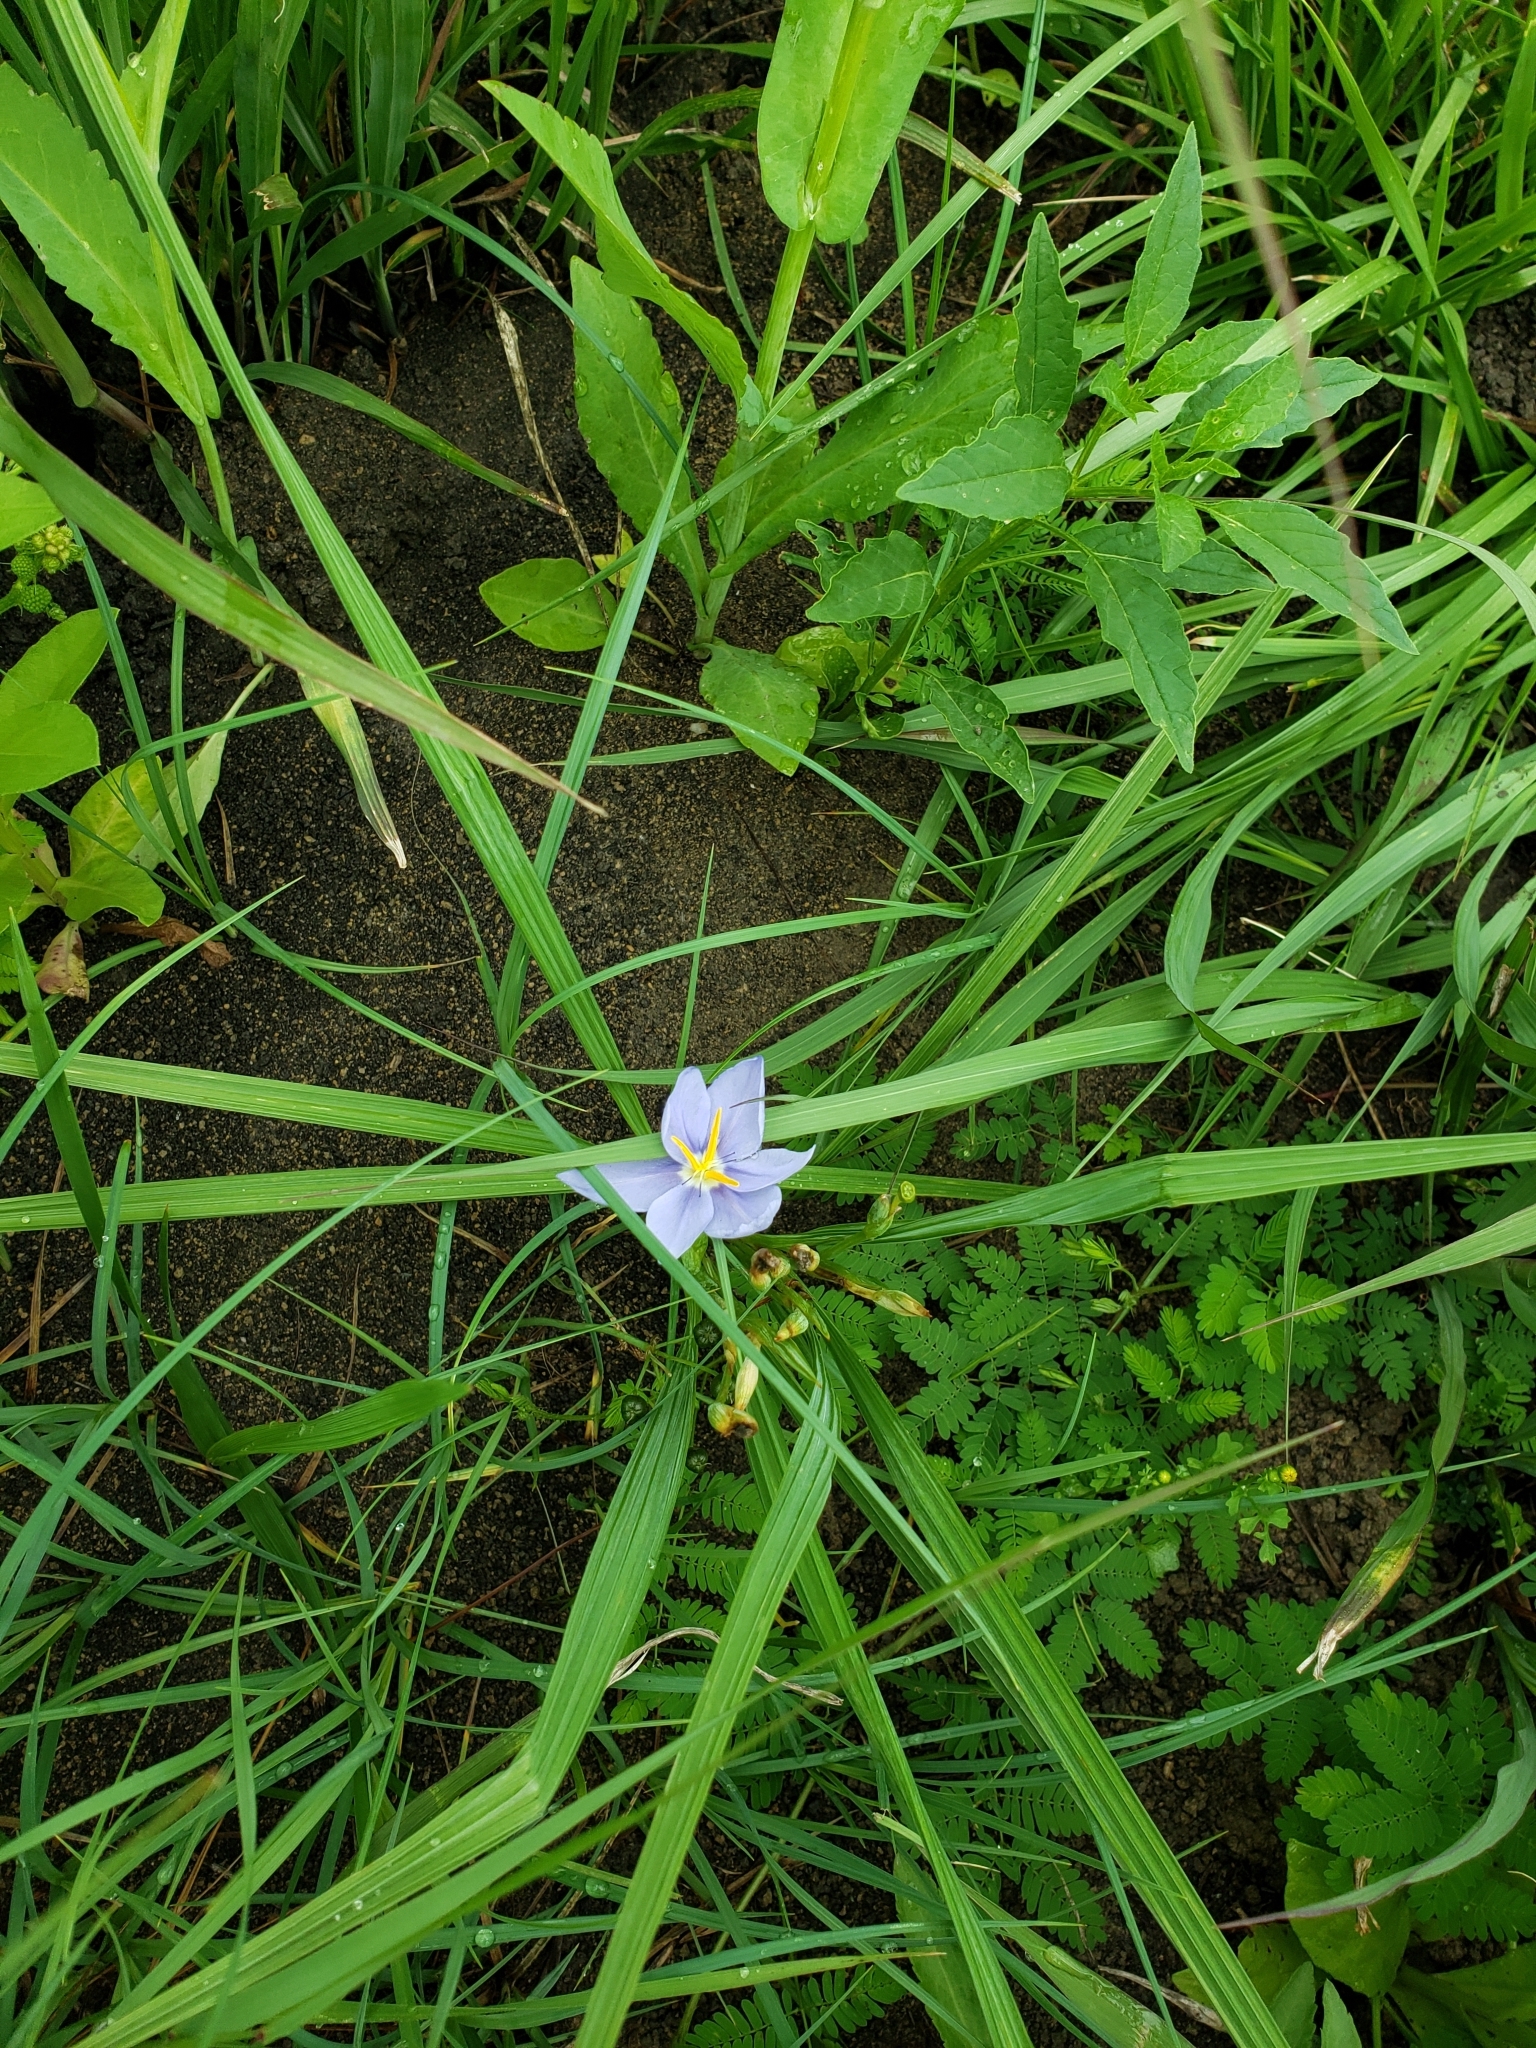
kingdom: Plantae
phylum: Tracheophyta
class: Liliopsida
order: Asparagales
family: Iridaceae
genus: Nemastylis
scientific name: Nemastylis geminiflora
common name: Prairie celestial
